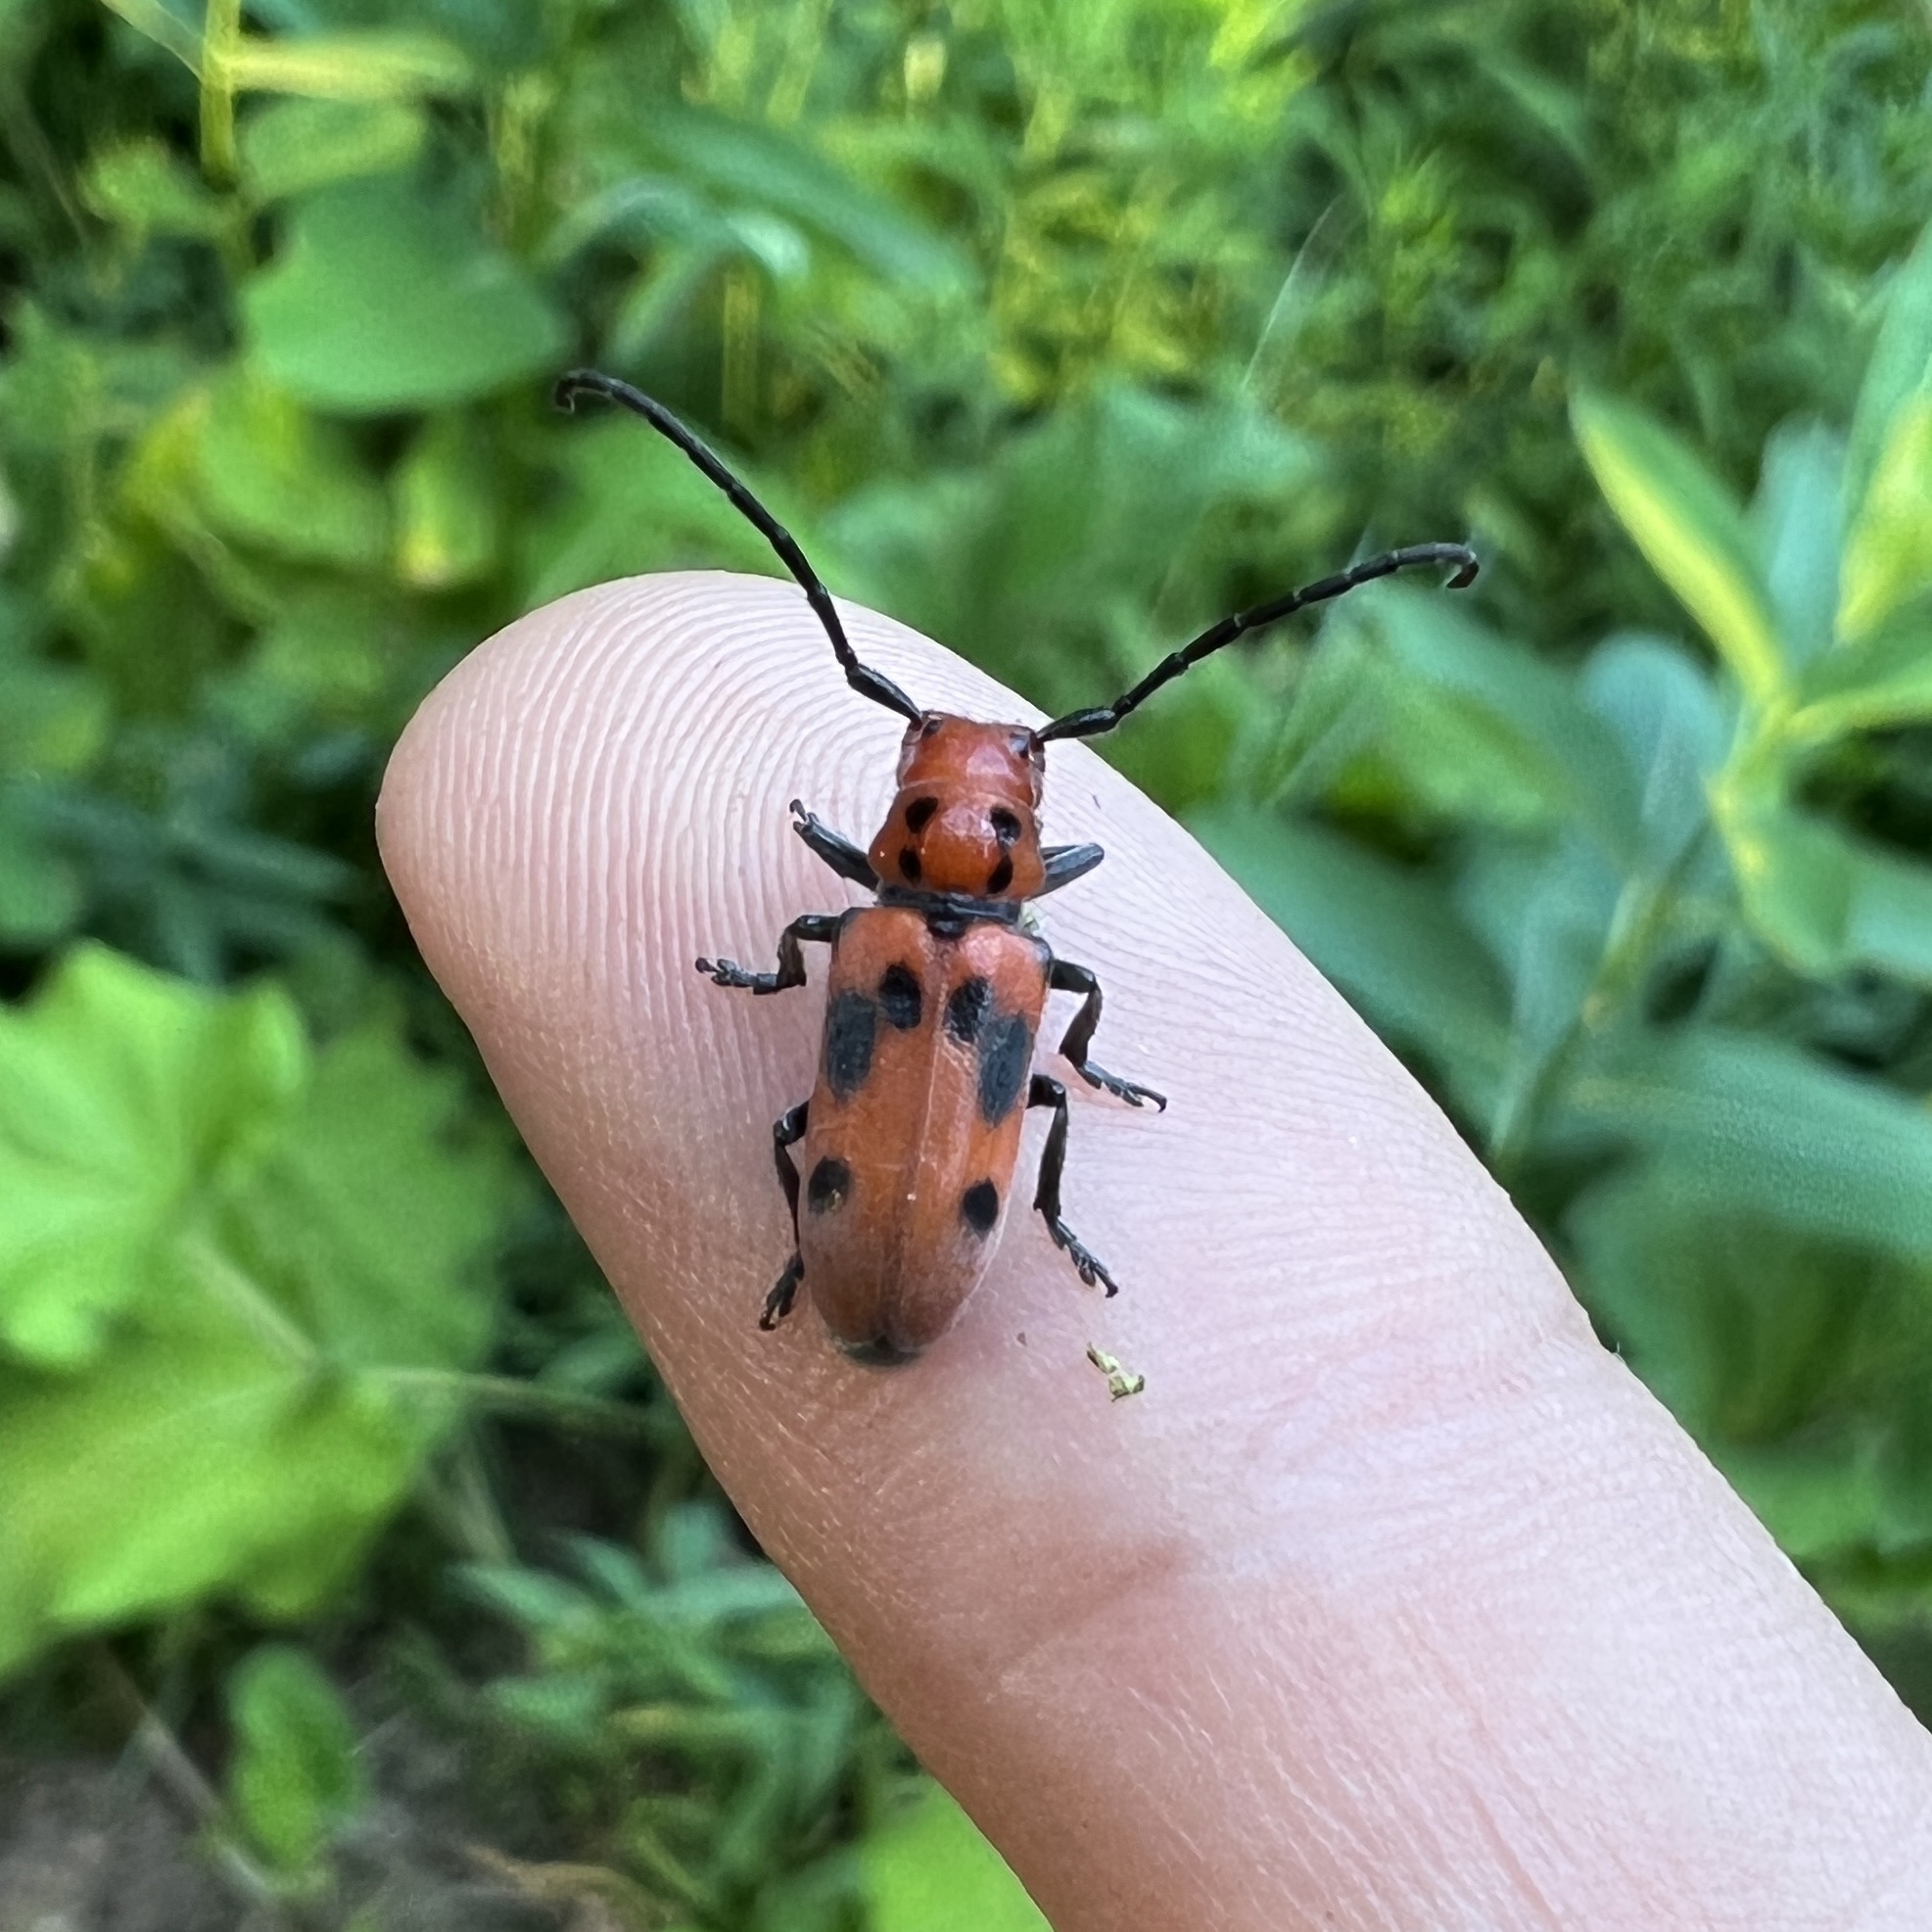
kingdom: Animalia
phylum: Arthropoda
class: Insecta
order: Coleoptera
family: Cerambycidae
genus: Tetraopes
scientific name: Tetraopes tetrophthalmus
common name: Red milkweed beetle
